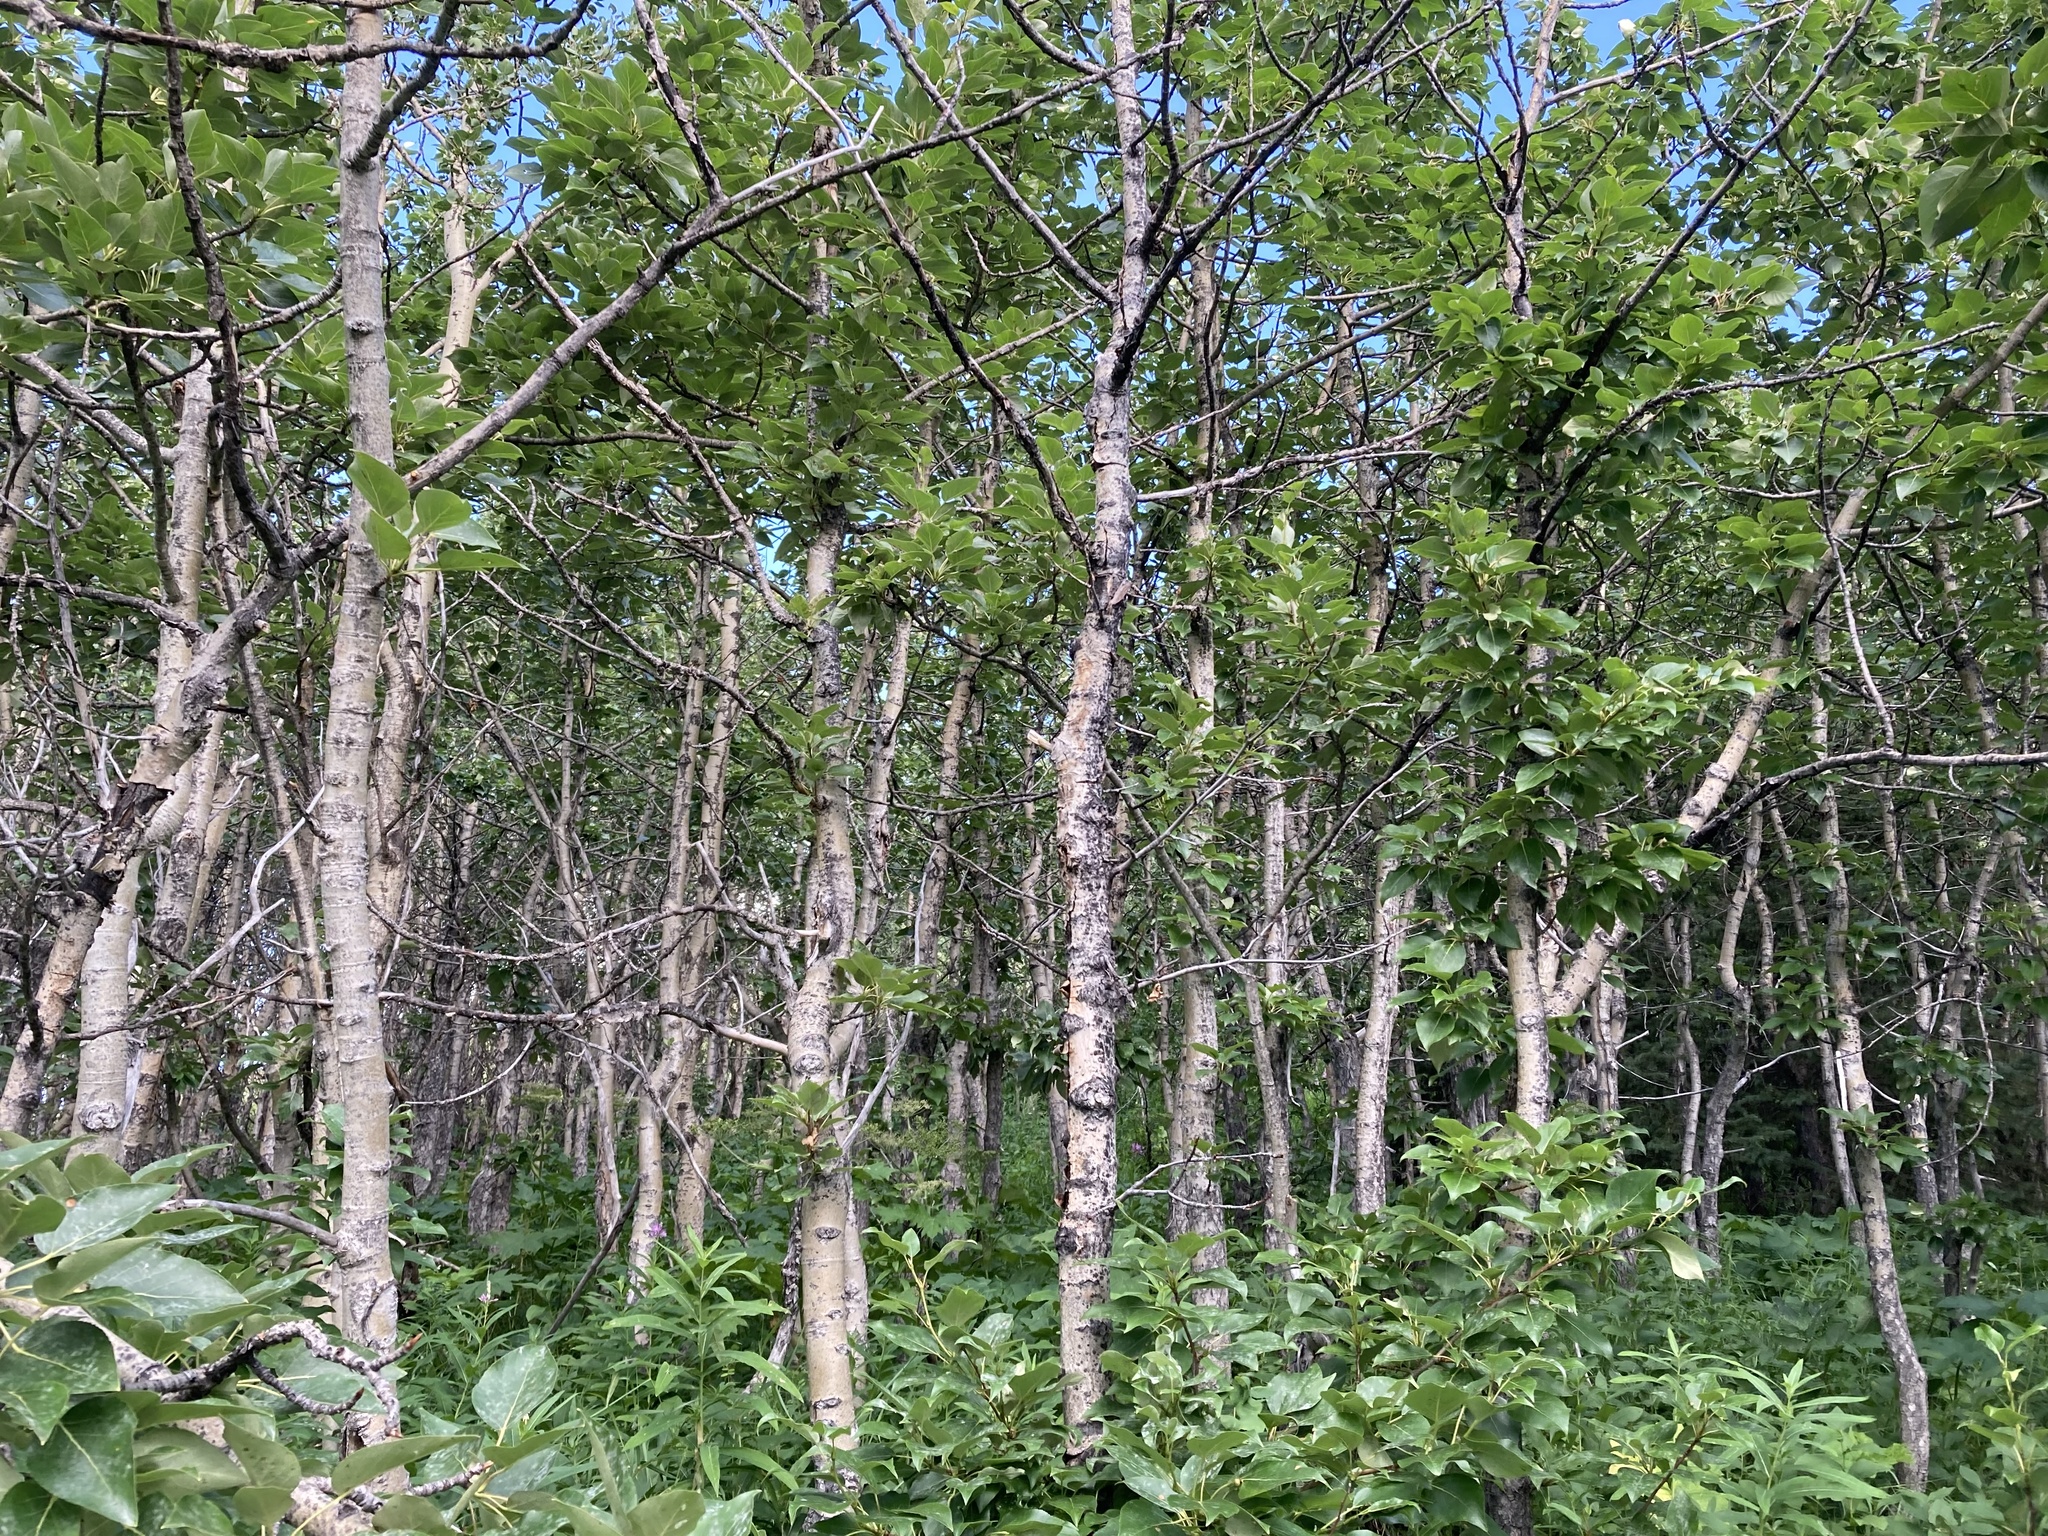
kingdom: Plantae
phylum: Tracheophyta
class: Magnoliopsida
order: Malpighiales
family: Salicaceae
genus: Populus
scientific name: Populus balsamifera
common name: Balsam poplar
